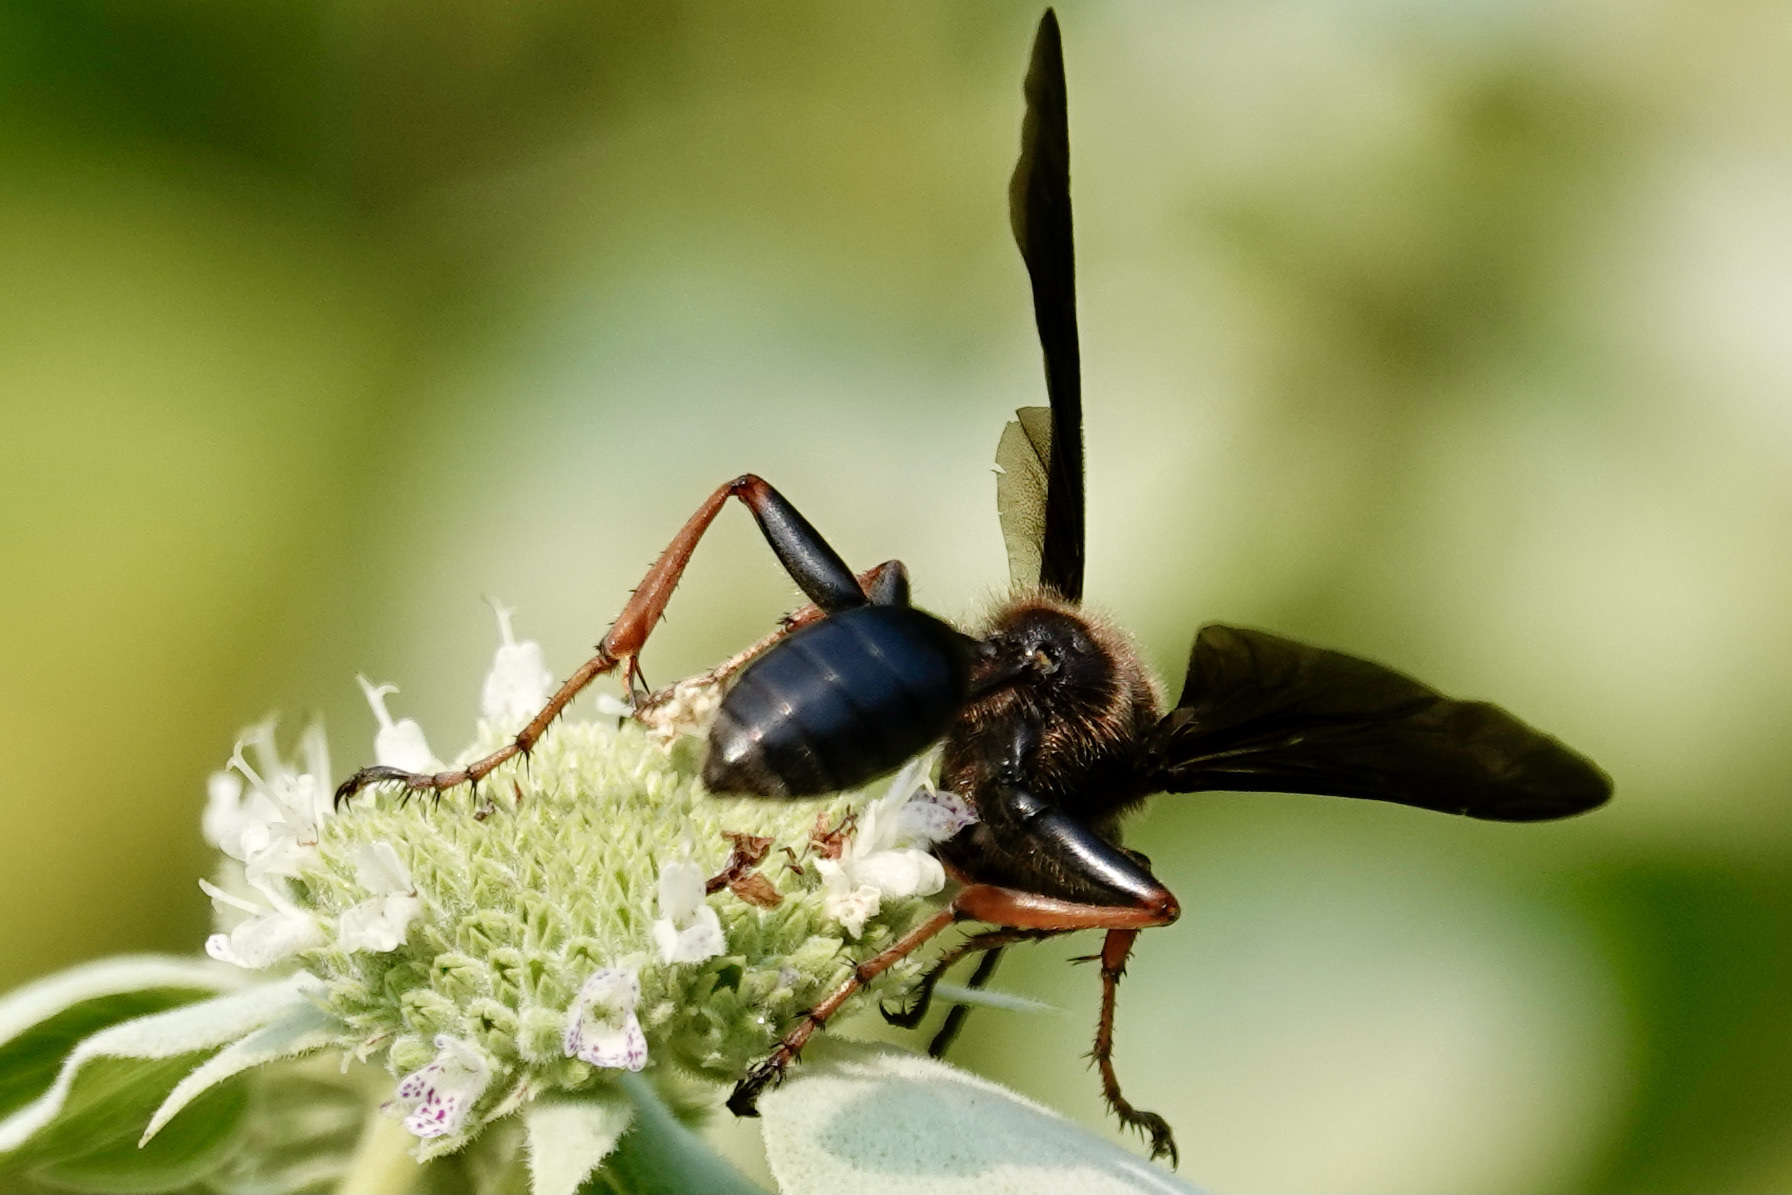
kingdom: Animalia
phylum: Arthropoda
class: Insecta
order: Hymenoptera
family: Sphecidae
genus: Isodontia
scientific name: Isodontia auripes
